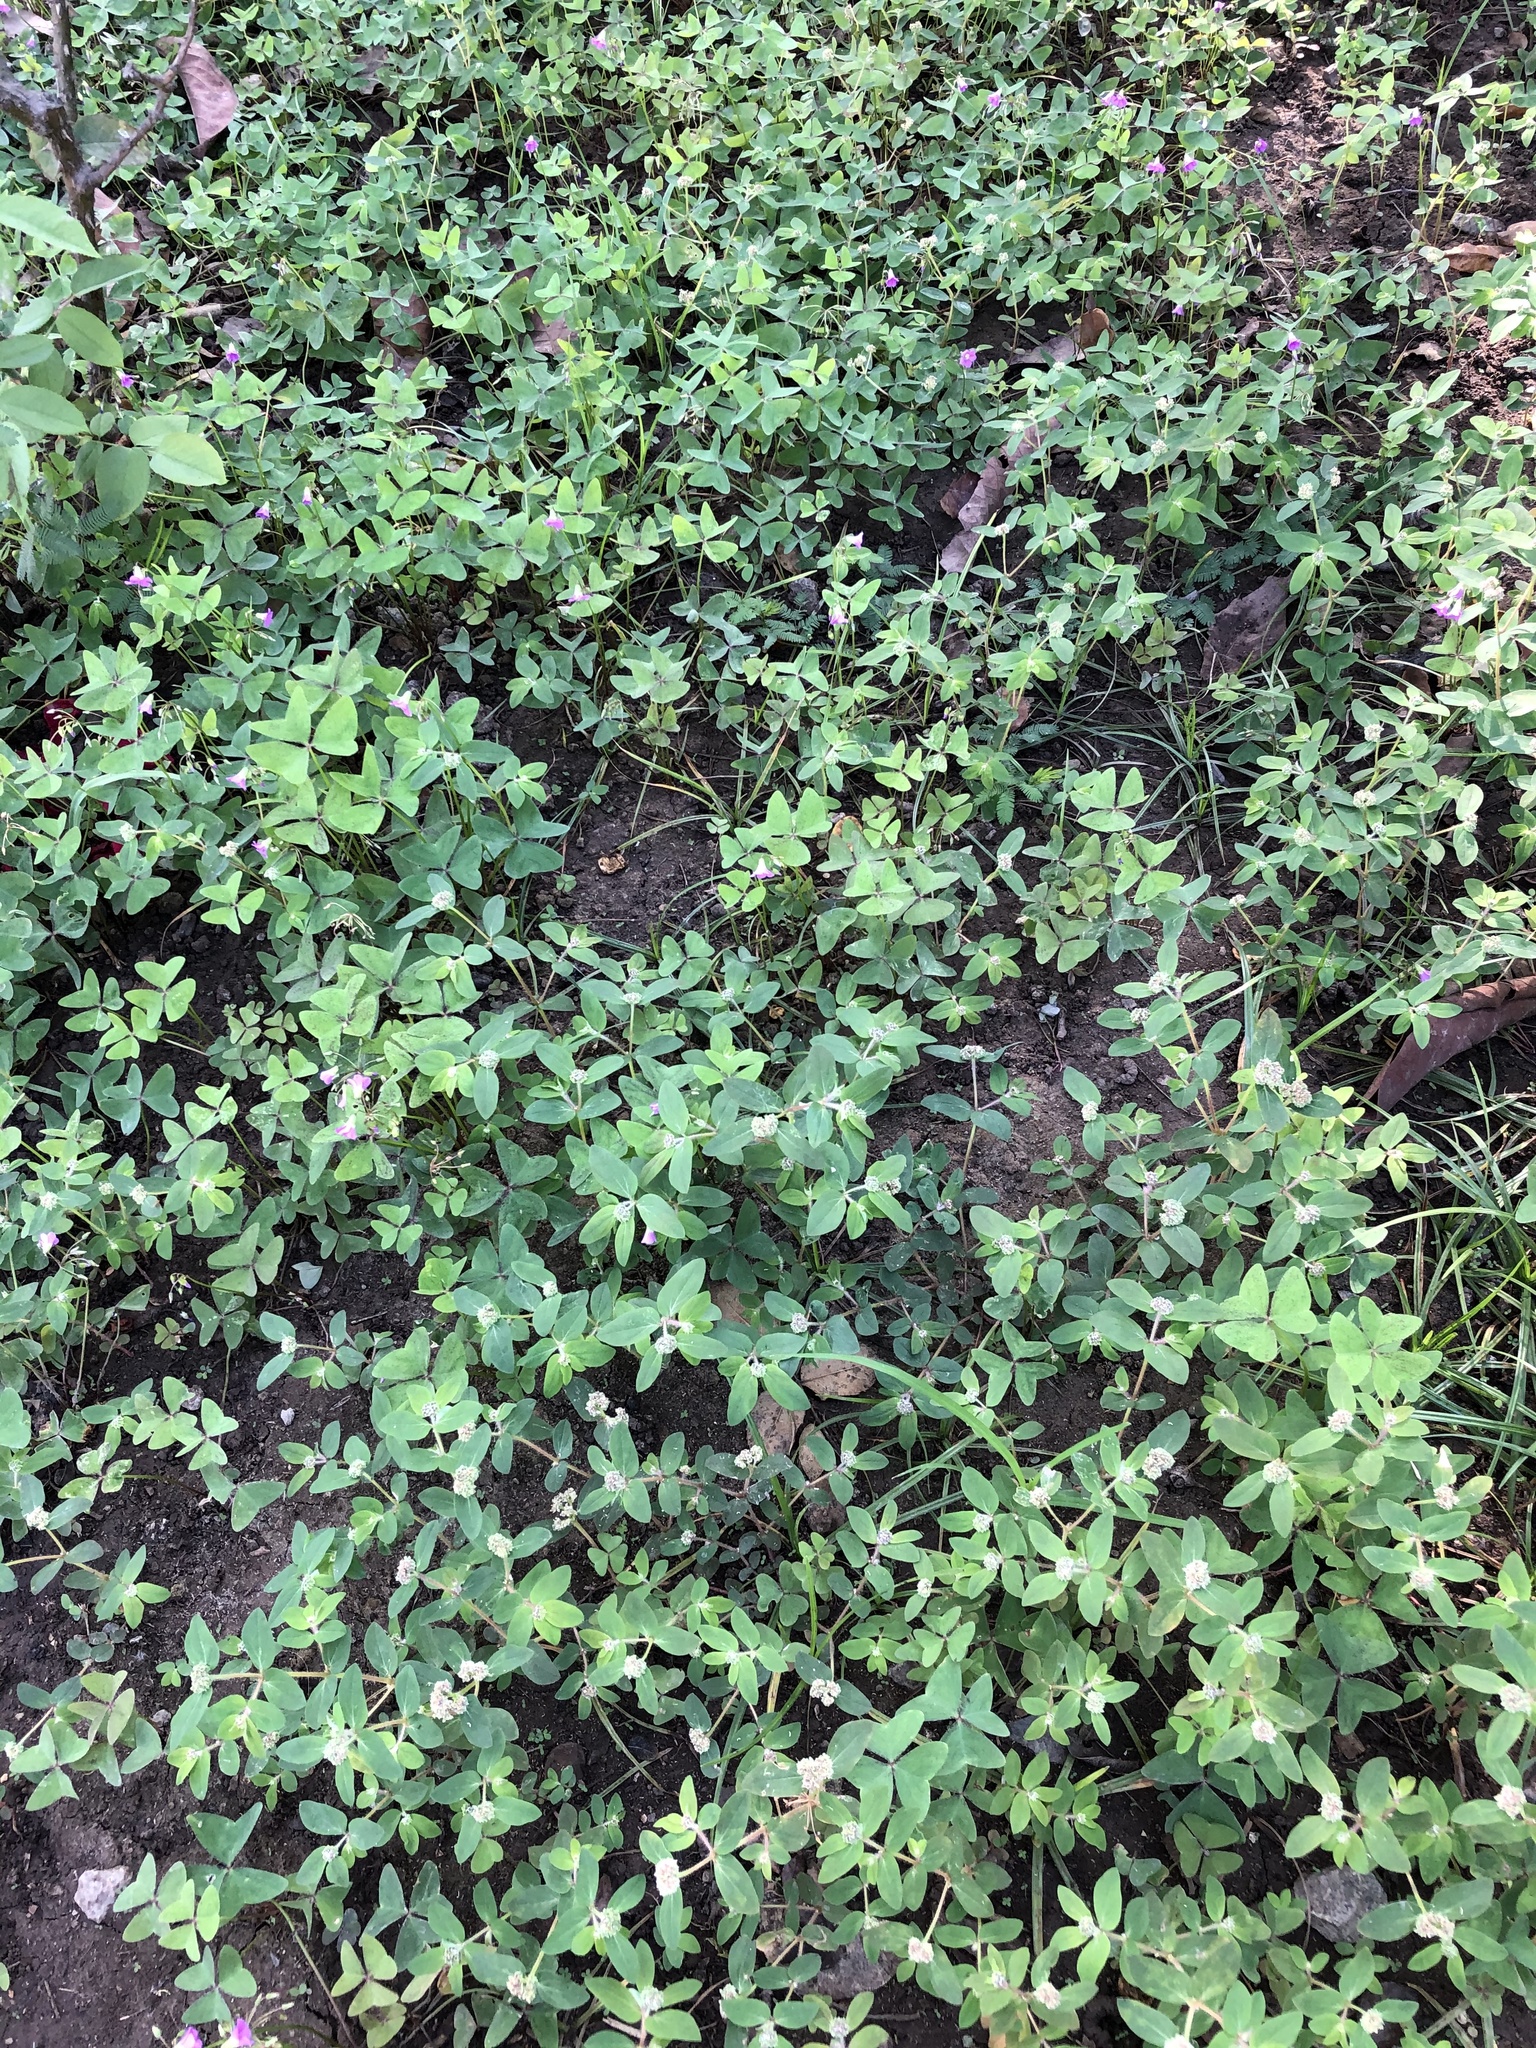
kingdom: Plantae
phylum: Tracheophyta
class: Magnoliopsida
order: Oxalidales
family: Oxalidaceae
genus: Oxalis
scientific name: Oxalis latifolia
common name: Garden pink-sorrel
